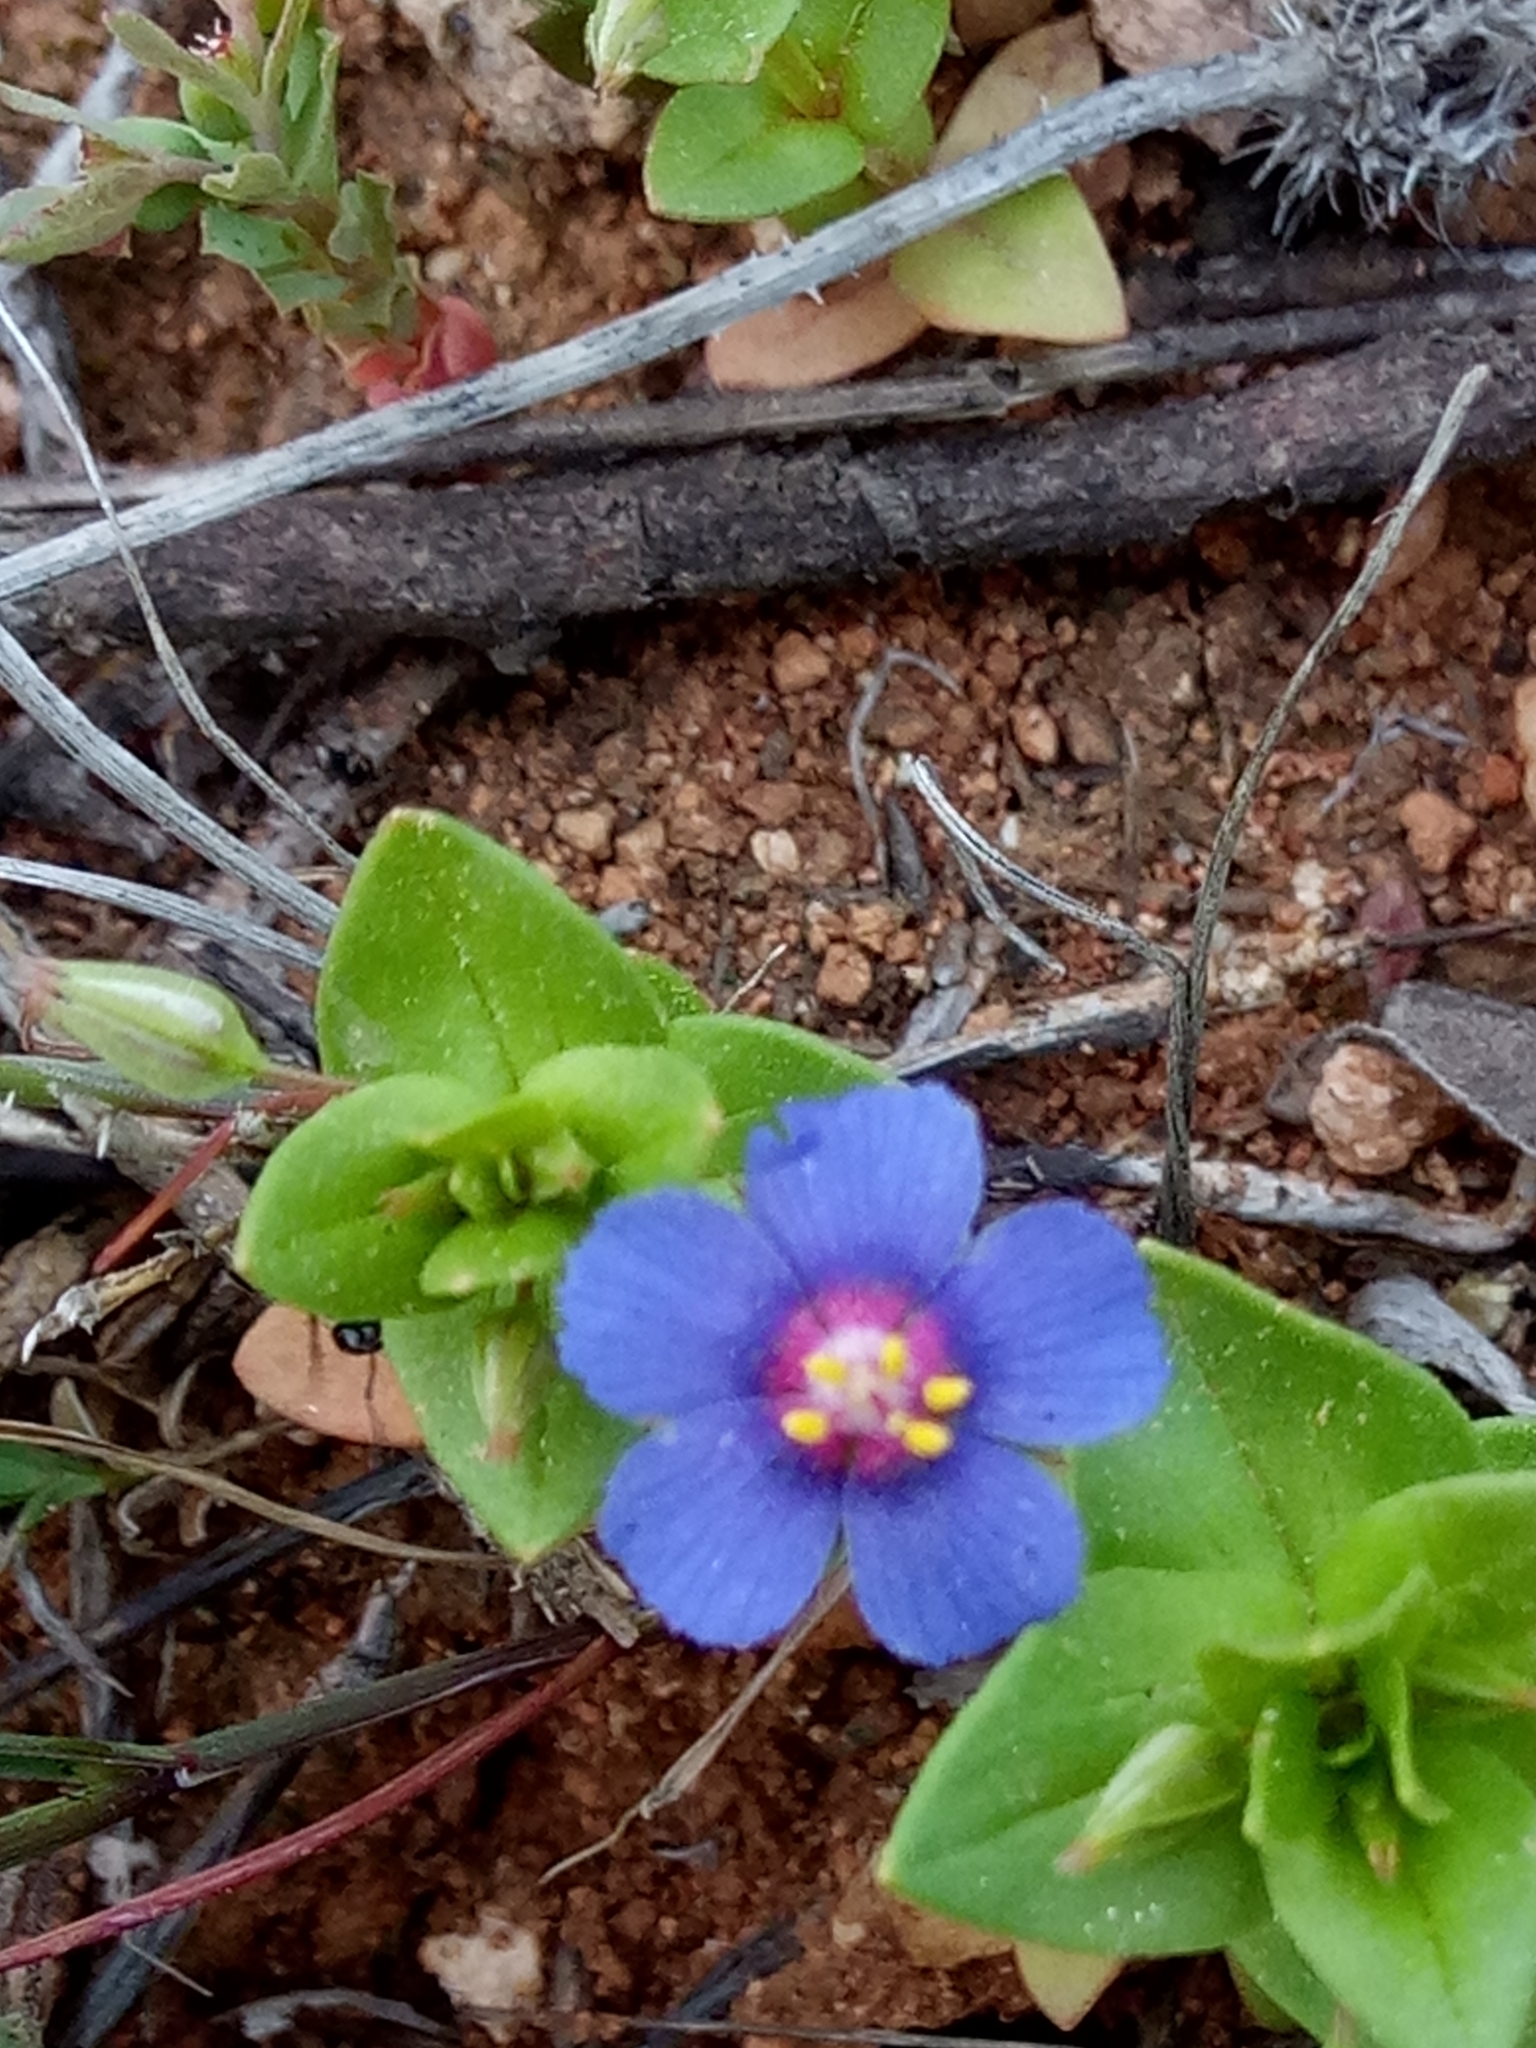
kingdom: Plantae
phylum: Tracheophyta
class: Magnoliopsida
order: Ericales
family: Primulaceae
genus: Lysimachia
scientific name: Lysimachia loeflingii
